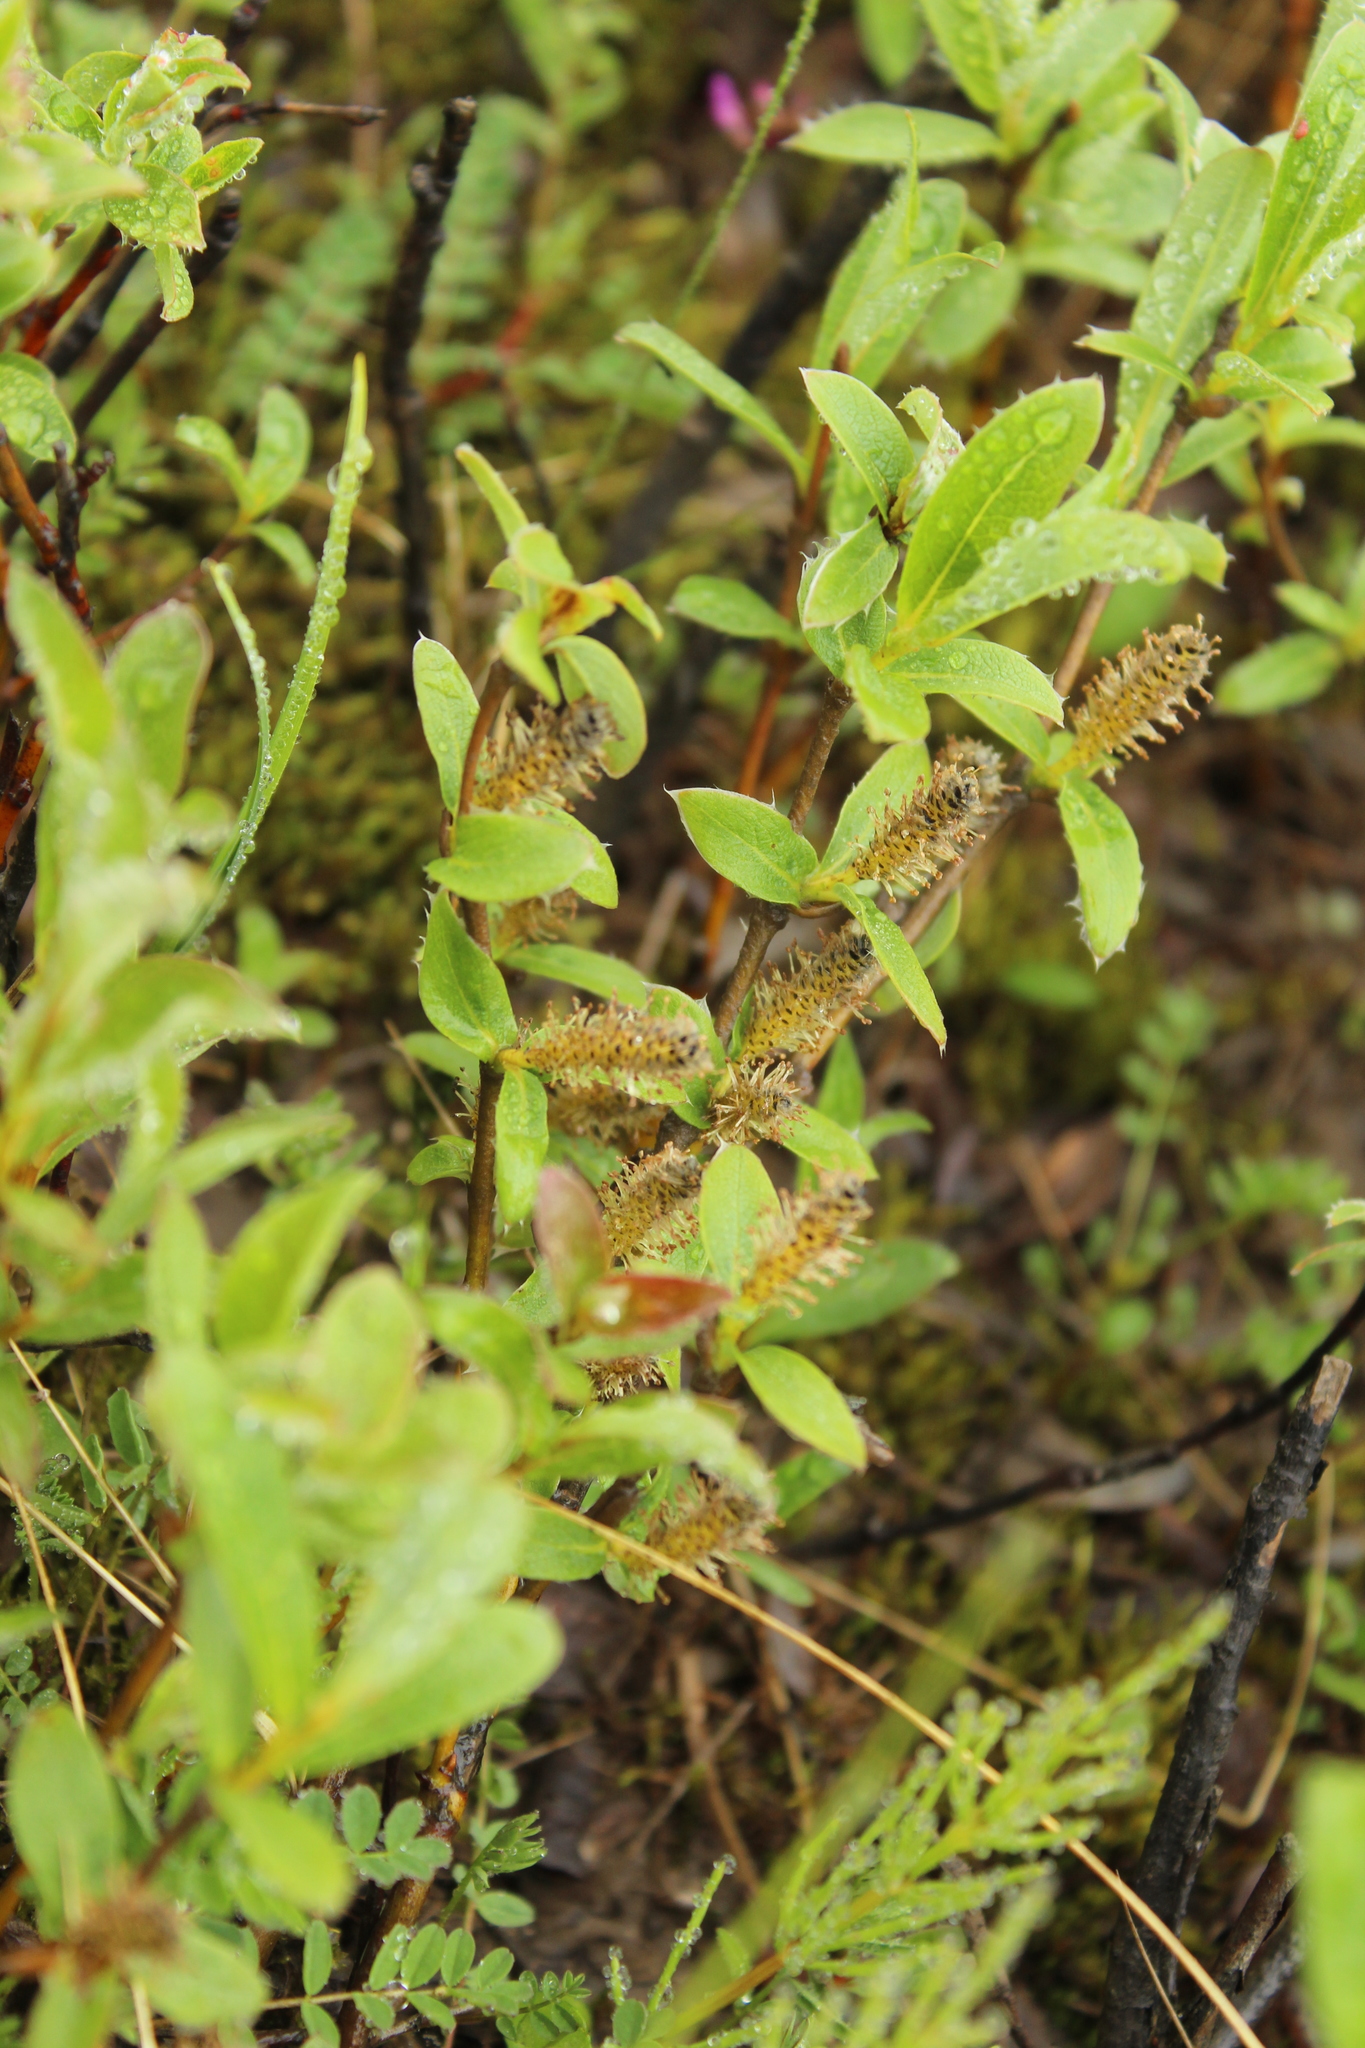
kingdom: Plantae
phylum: Tracheophyta
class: Magnoliopsida
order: Malpighiales
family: Salicaceae
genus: Salix
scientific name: Salix reptans
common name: Arctic creeping willow
